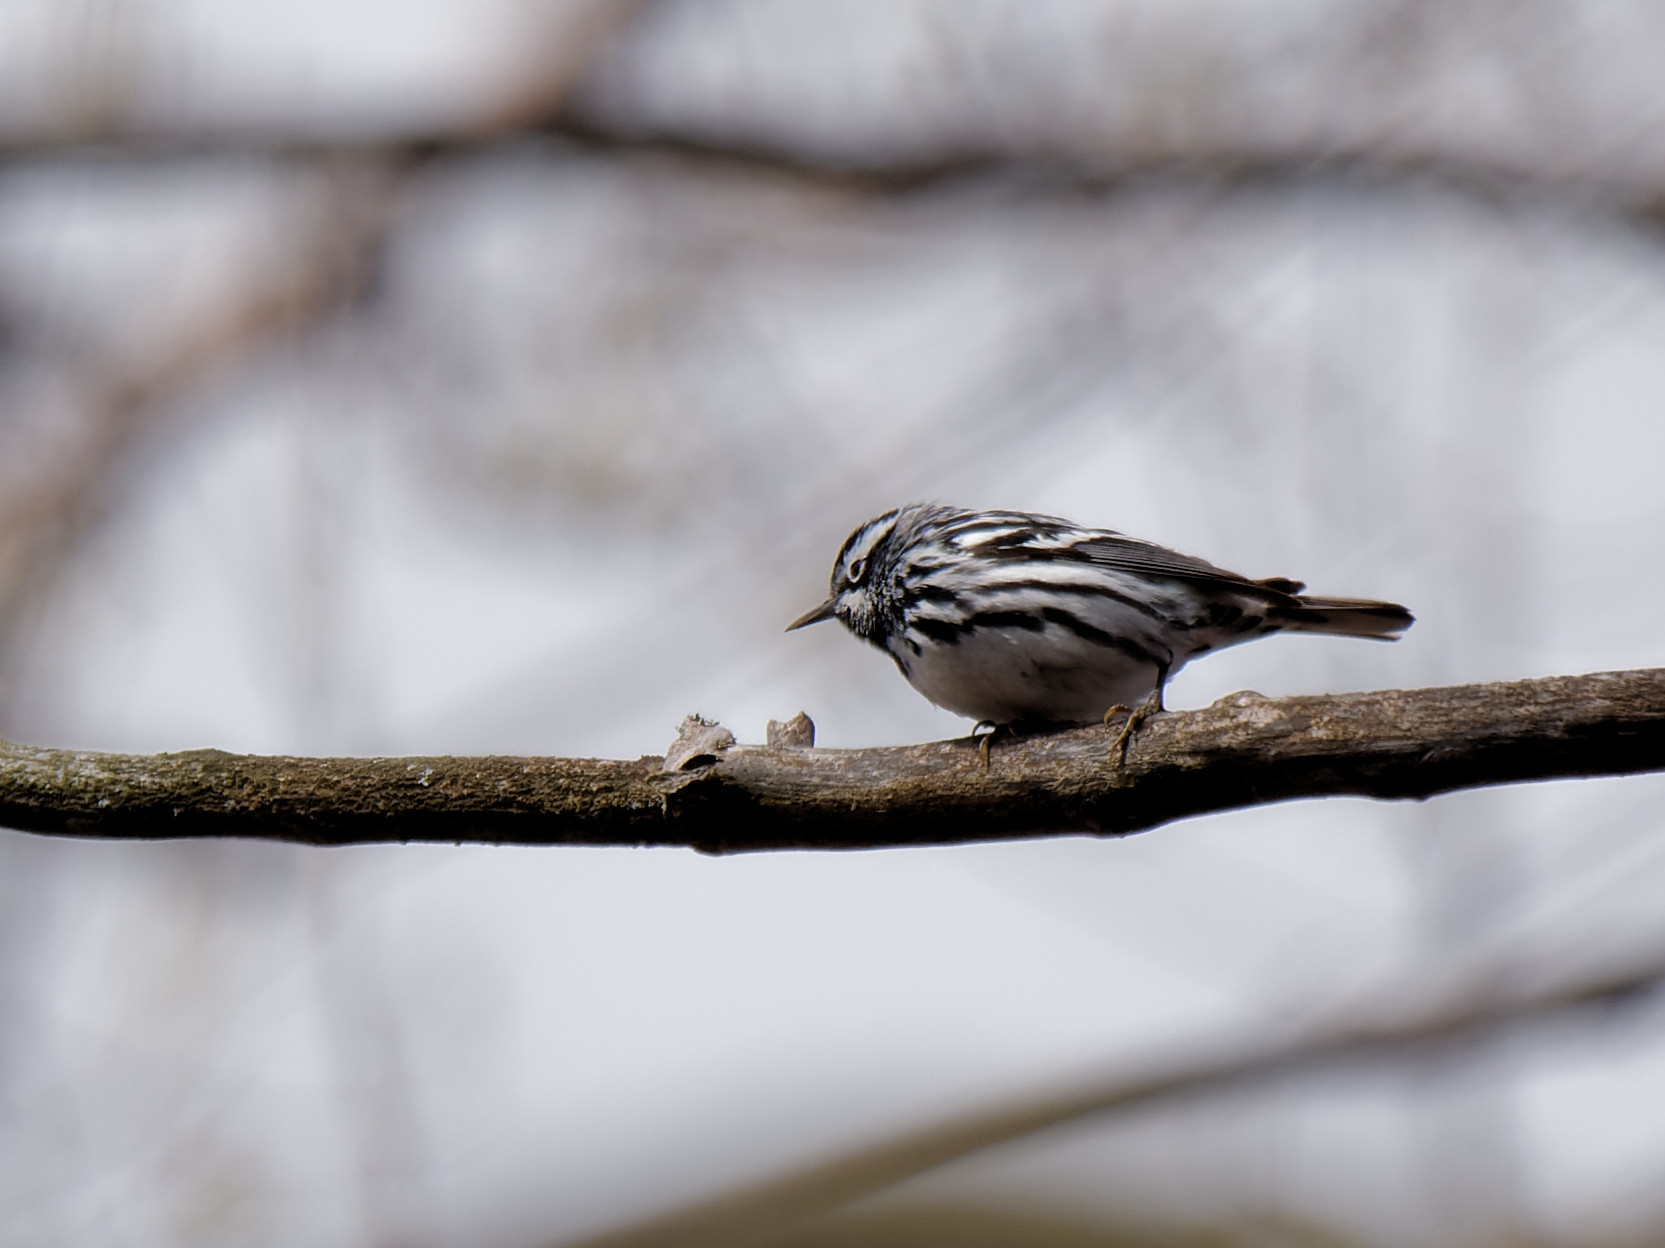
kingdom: Animalia
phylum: Chordata
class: Aves
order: Passeriformes
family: Parulidae
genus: Mniotilta
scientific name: Mniotilta varia
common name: Black-and-white warbler
